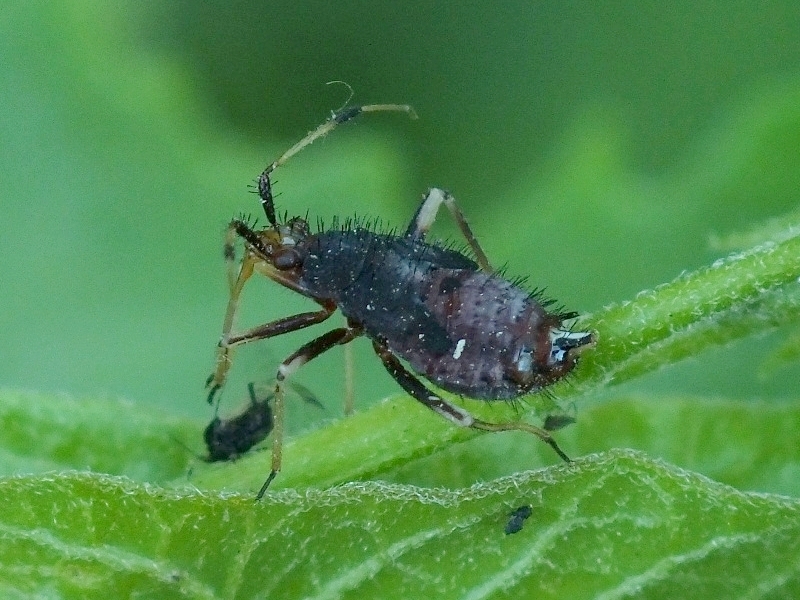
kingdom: Animalia
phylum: Arthropoda
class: Insecta
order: Hemiptera
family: Miridae
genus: Deraeocoris
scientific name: Deraeocoris ruber
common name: Plant bug
